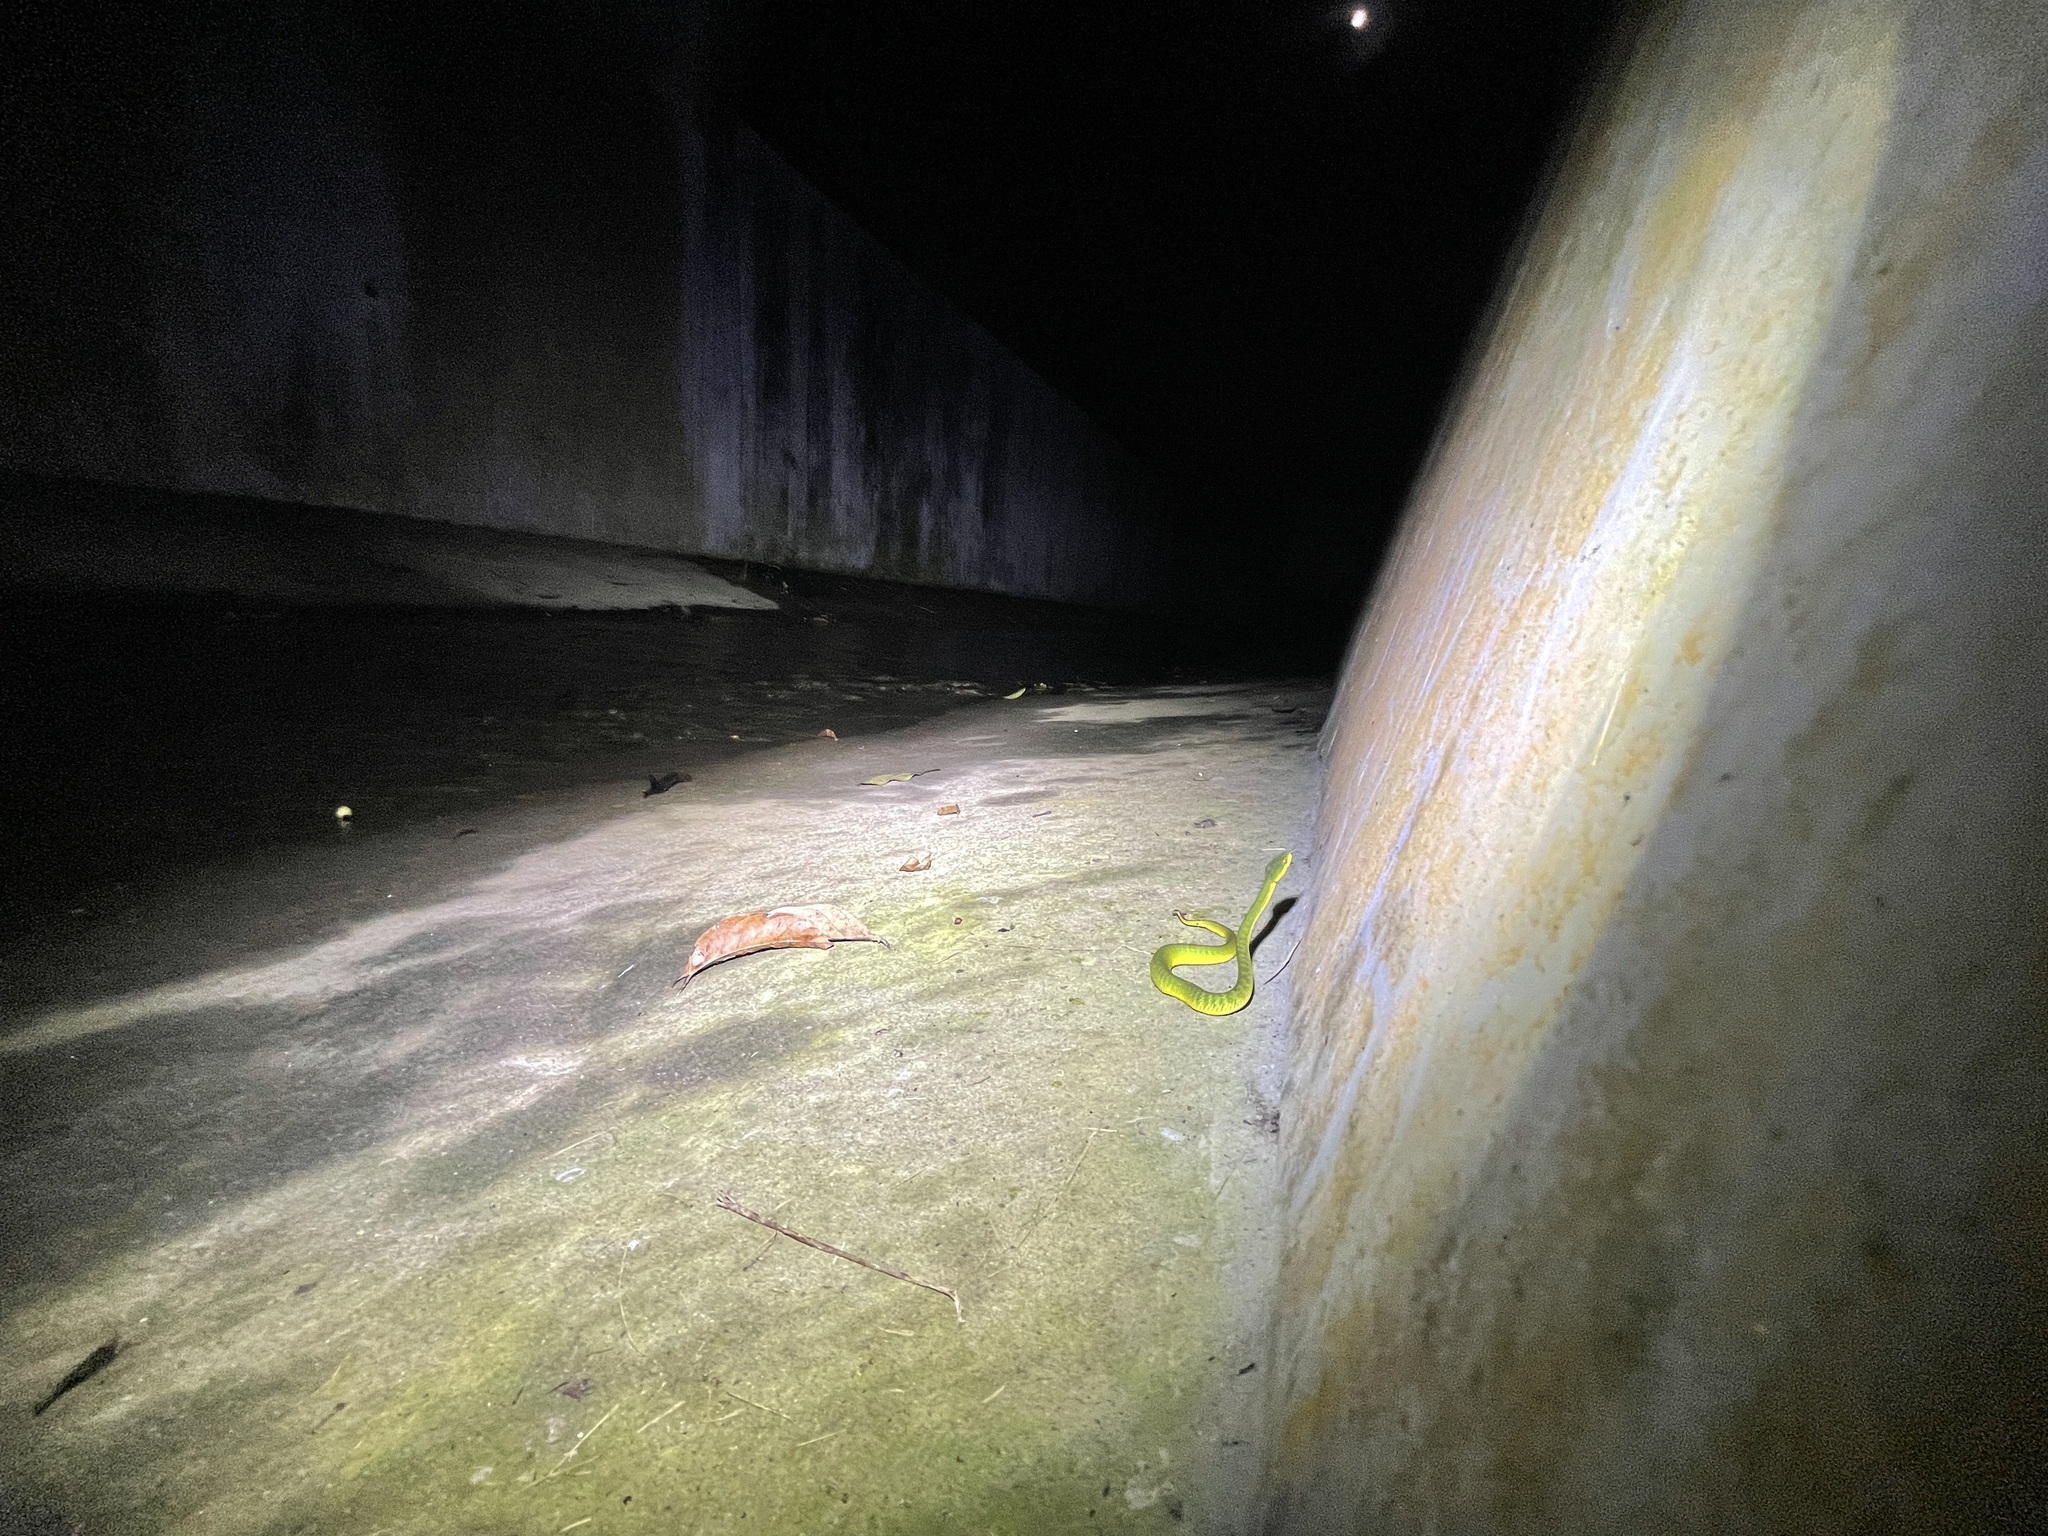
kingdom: Animalia
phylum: Chordata
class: Squamata
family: Viperidae
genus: Trimeresurus
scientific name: Trimeresurus albolabris
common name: White-lipped pitviper
